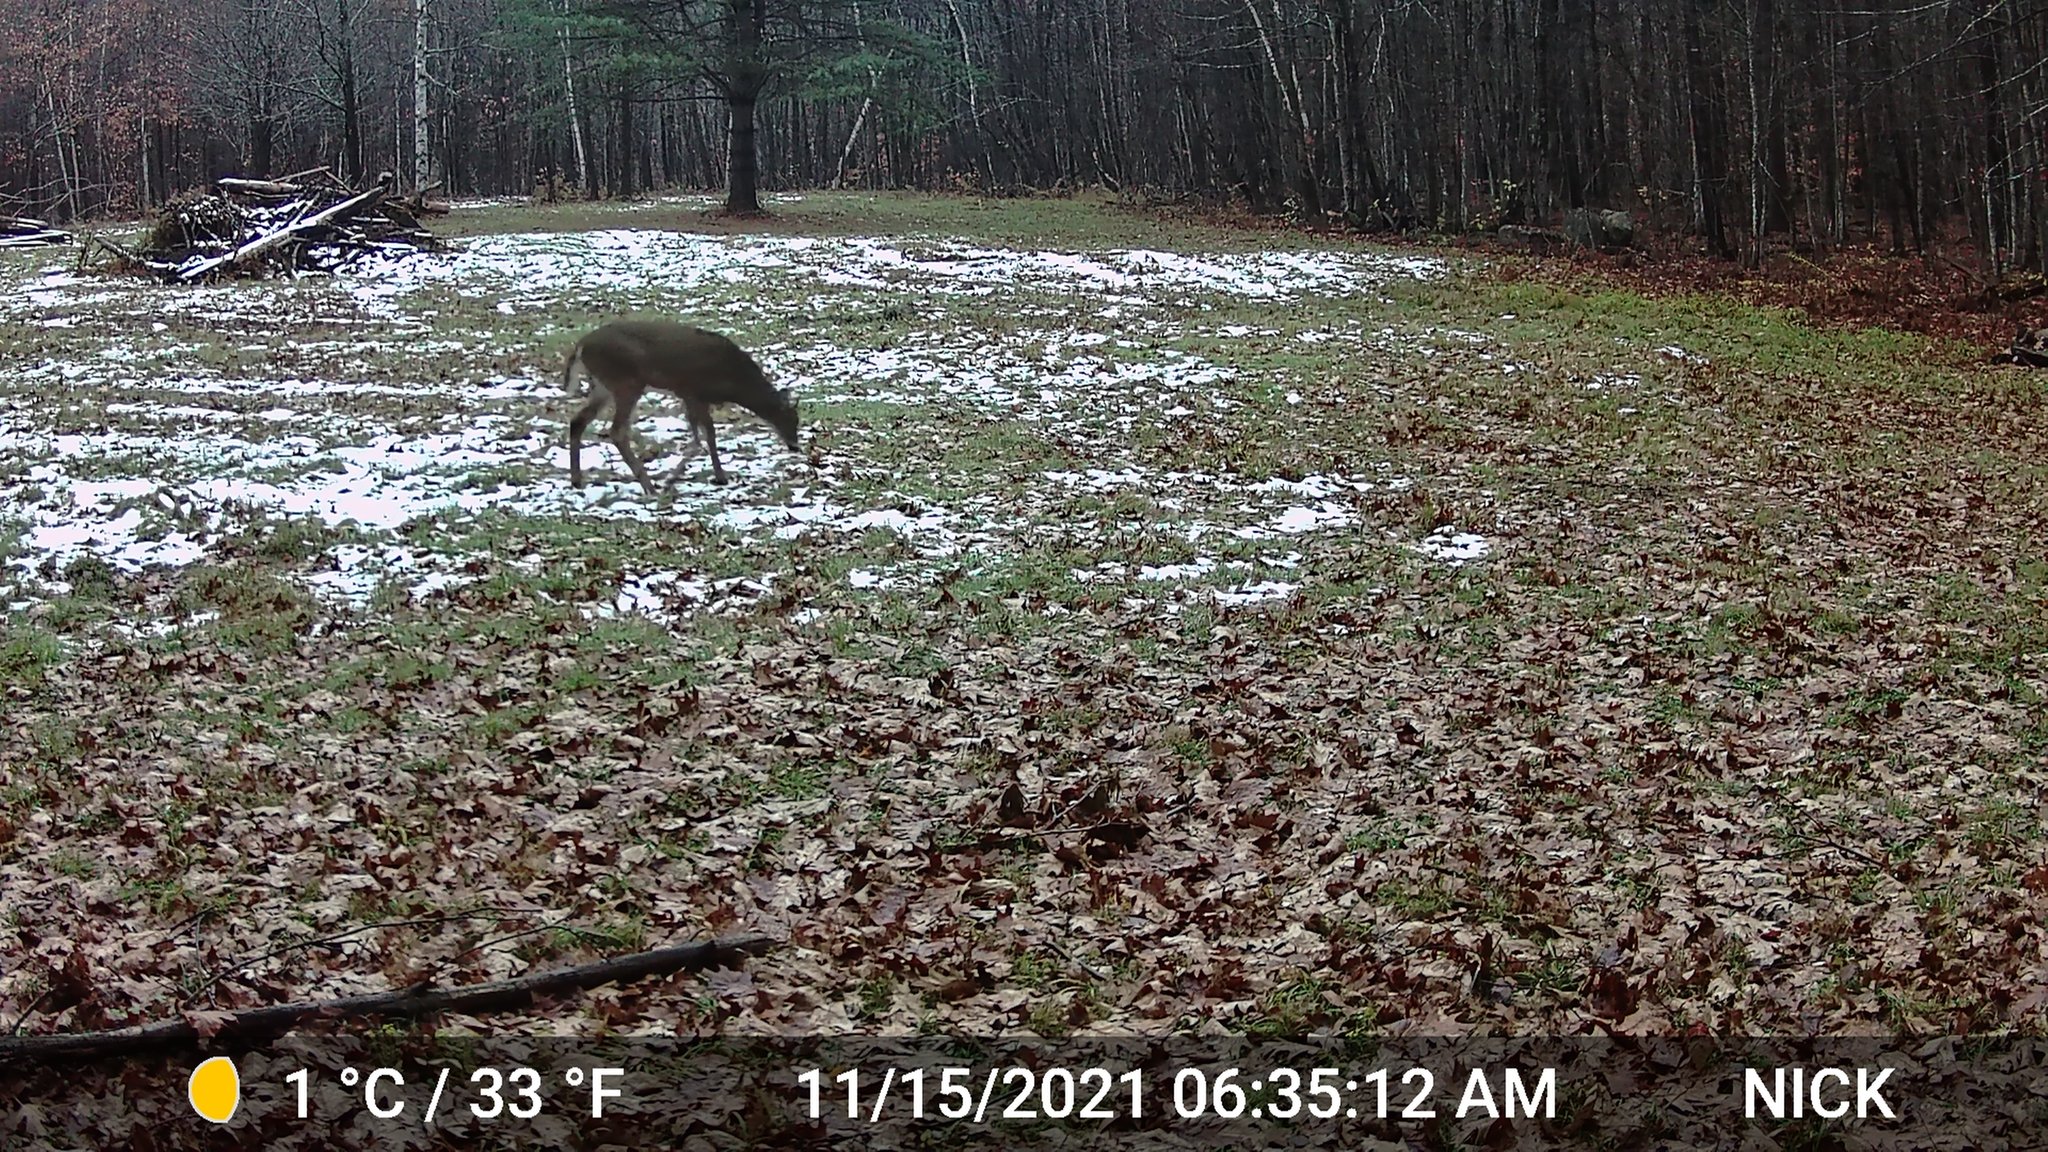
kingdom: Animalia
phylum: Chordata
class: Mammalia
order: Artiodactyla
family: Cervidae
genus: Odocoileus
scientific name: Odocoileus virginianus
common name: White-tailed deer
